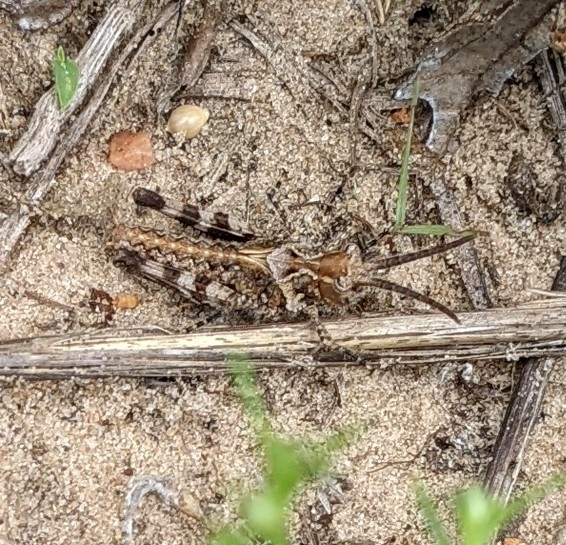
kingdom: Animalia
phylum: Arthropoda
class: Insecta
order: Orthoptera
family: Acrididae
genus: Psinidia
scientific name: Psinidia amplicornus
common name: Caudell's longhorn grasshopper
